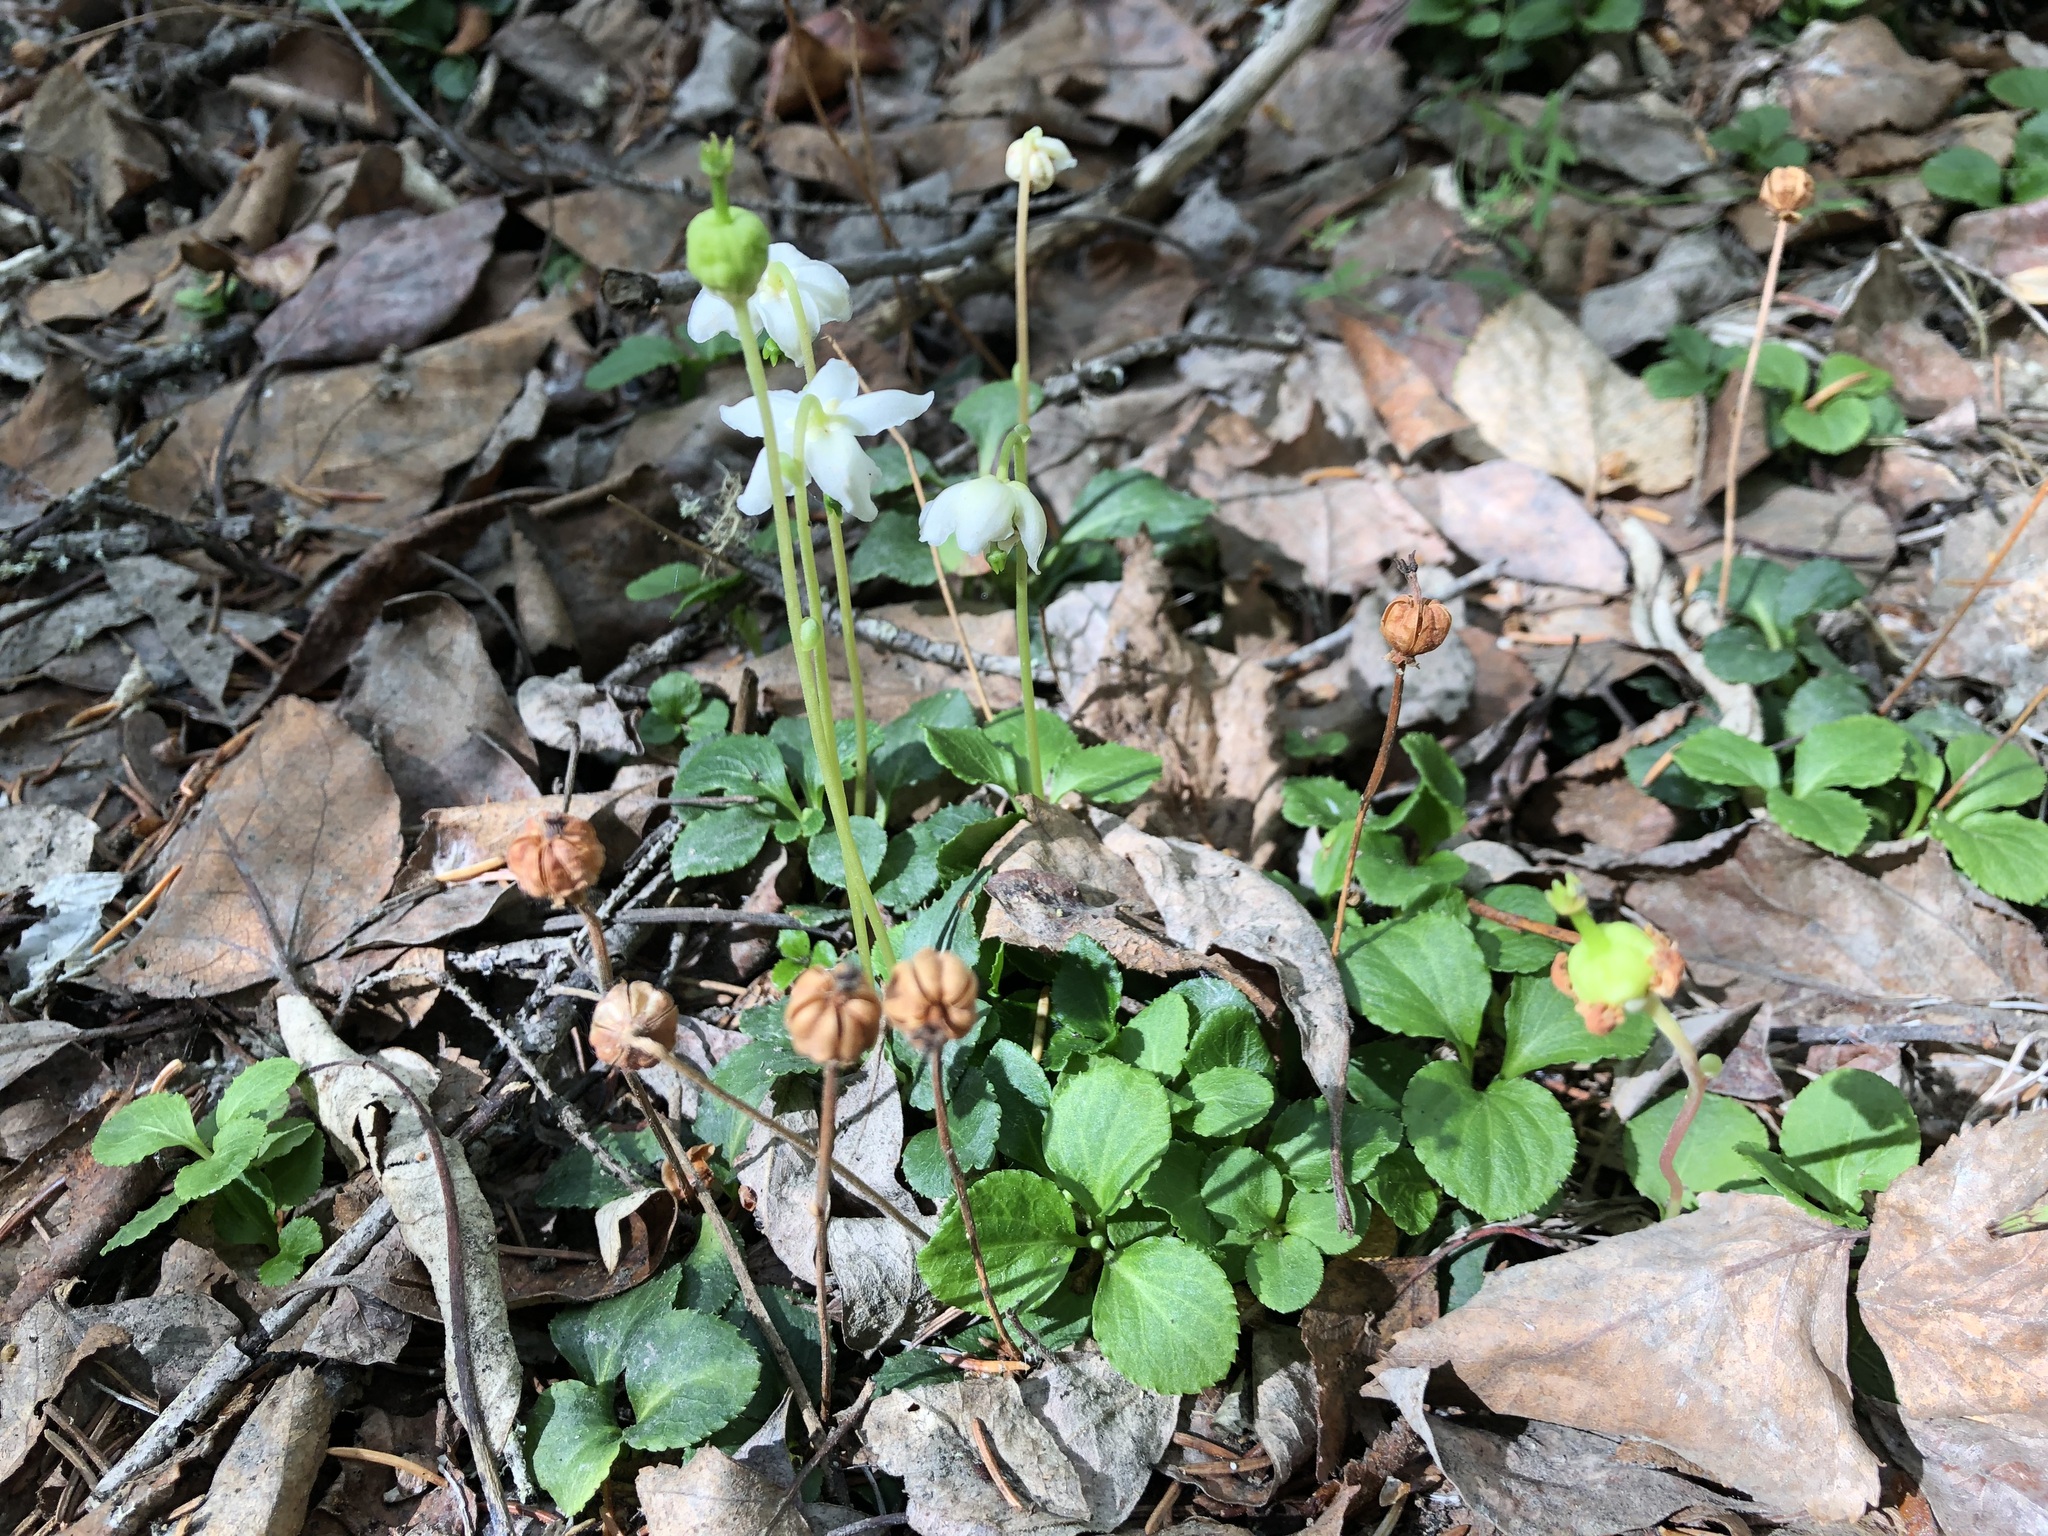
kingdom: Plantae
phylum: Tracheophyta
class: Magnoliopsida
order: Ericales
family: Ericaceae
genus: Moneses
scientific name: Moneses uniflora
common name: One-flowered wintergreen
